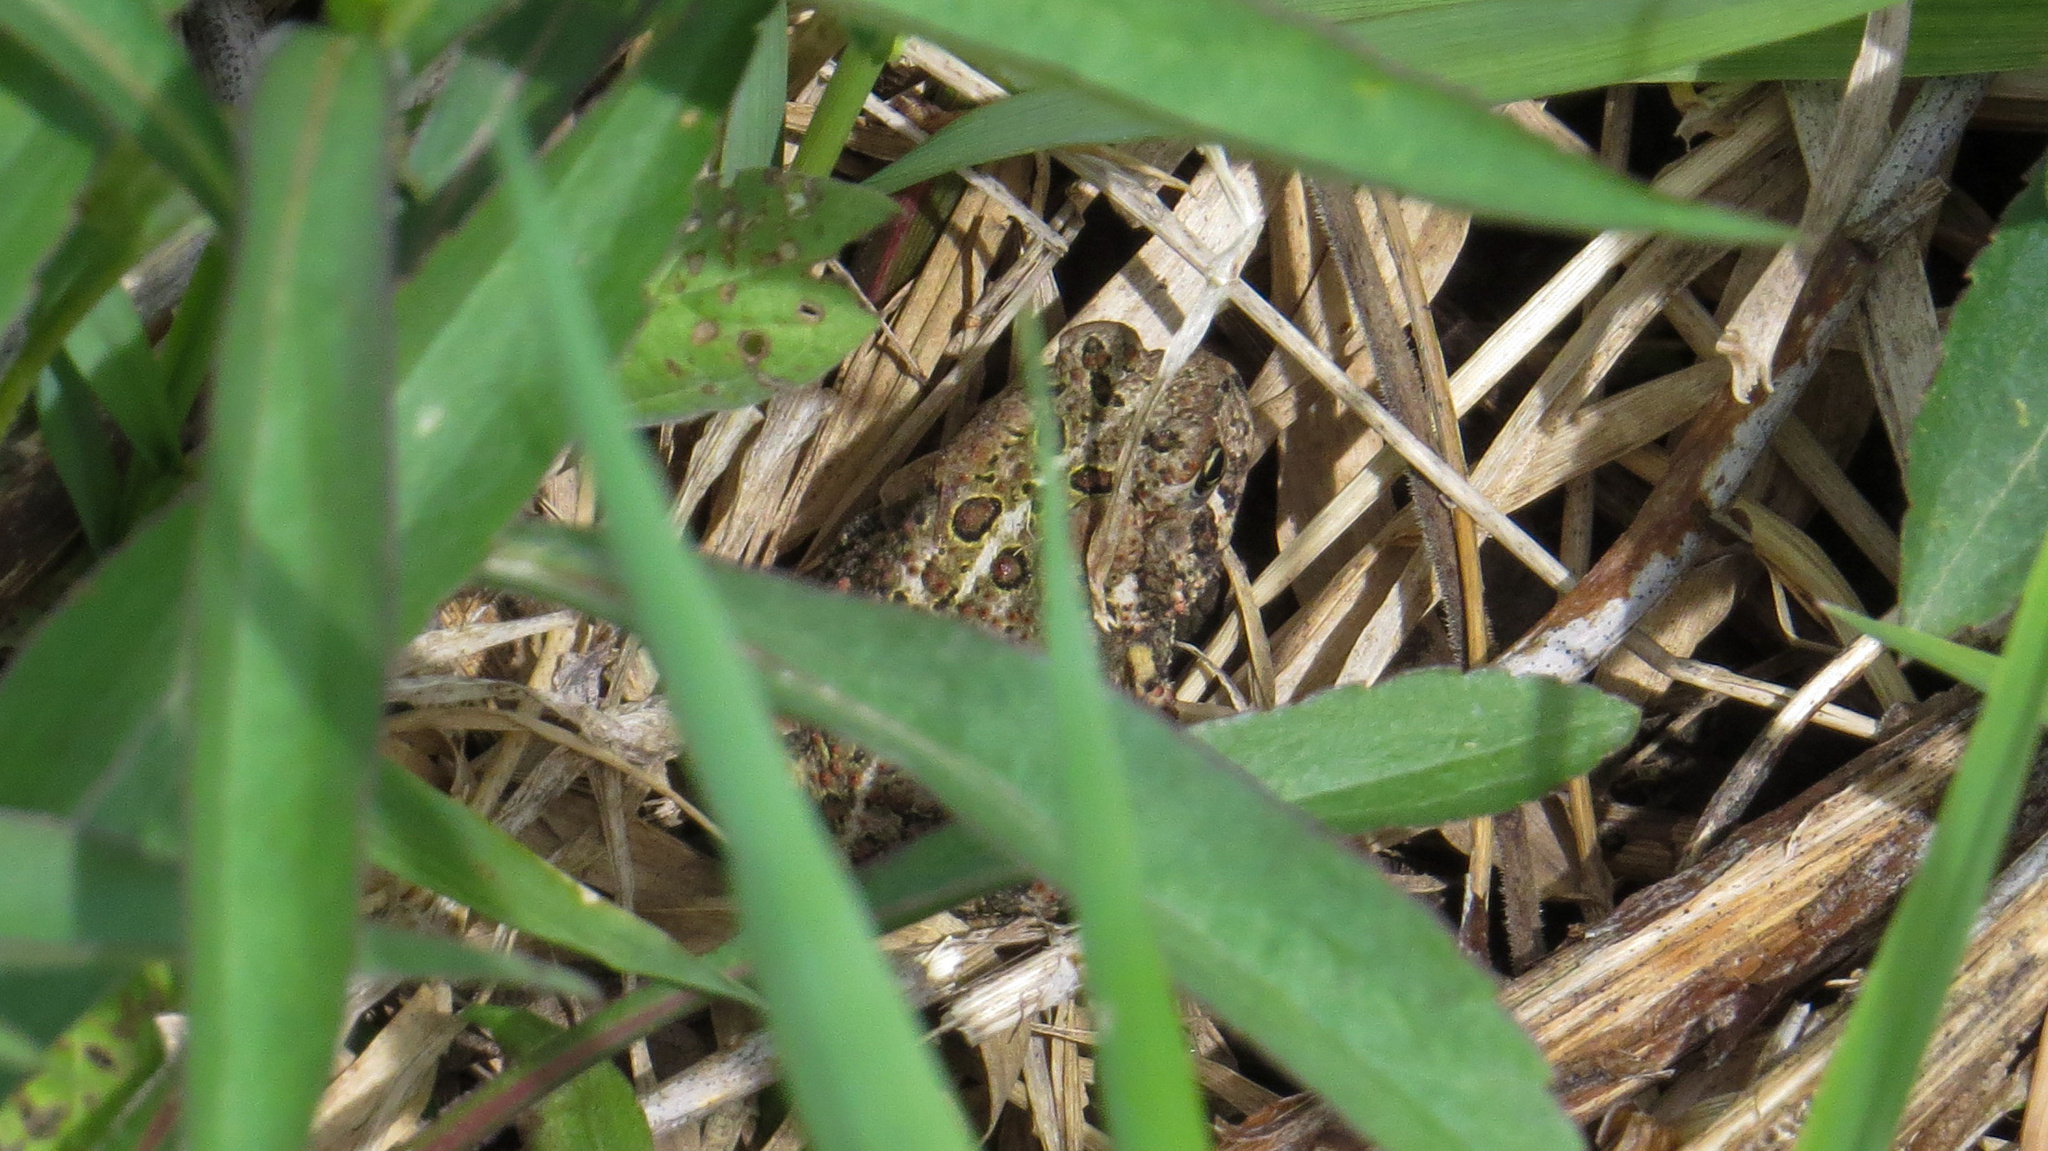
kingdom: Animalia
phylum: Chordata
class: Amphibia
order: Anura
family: Bufonidae
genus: Anaxyrus
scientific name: Anaxyrus americanus
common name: American toad
